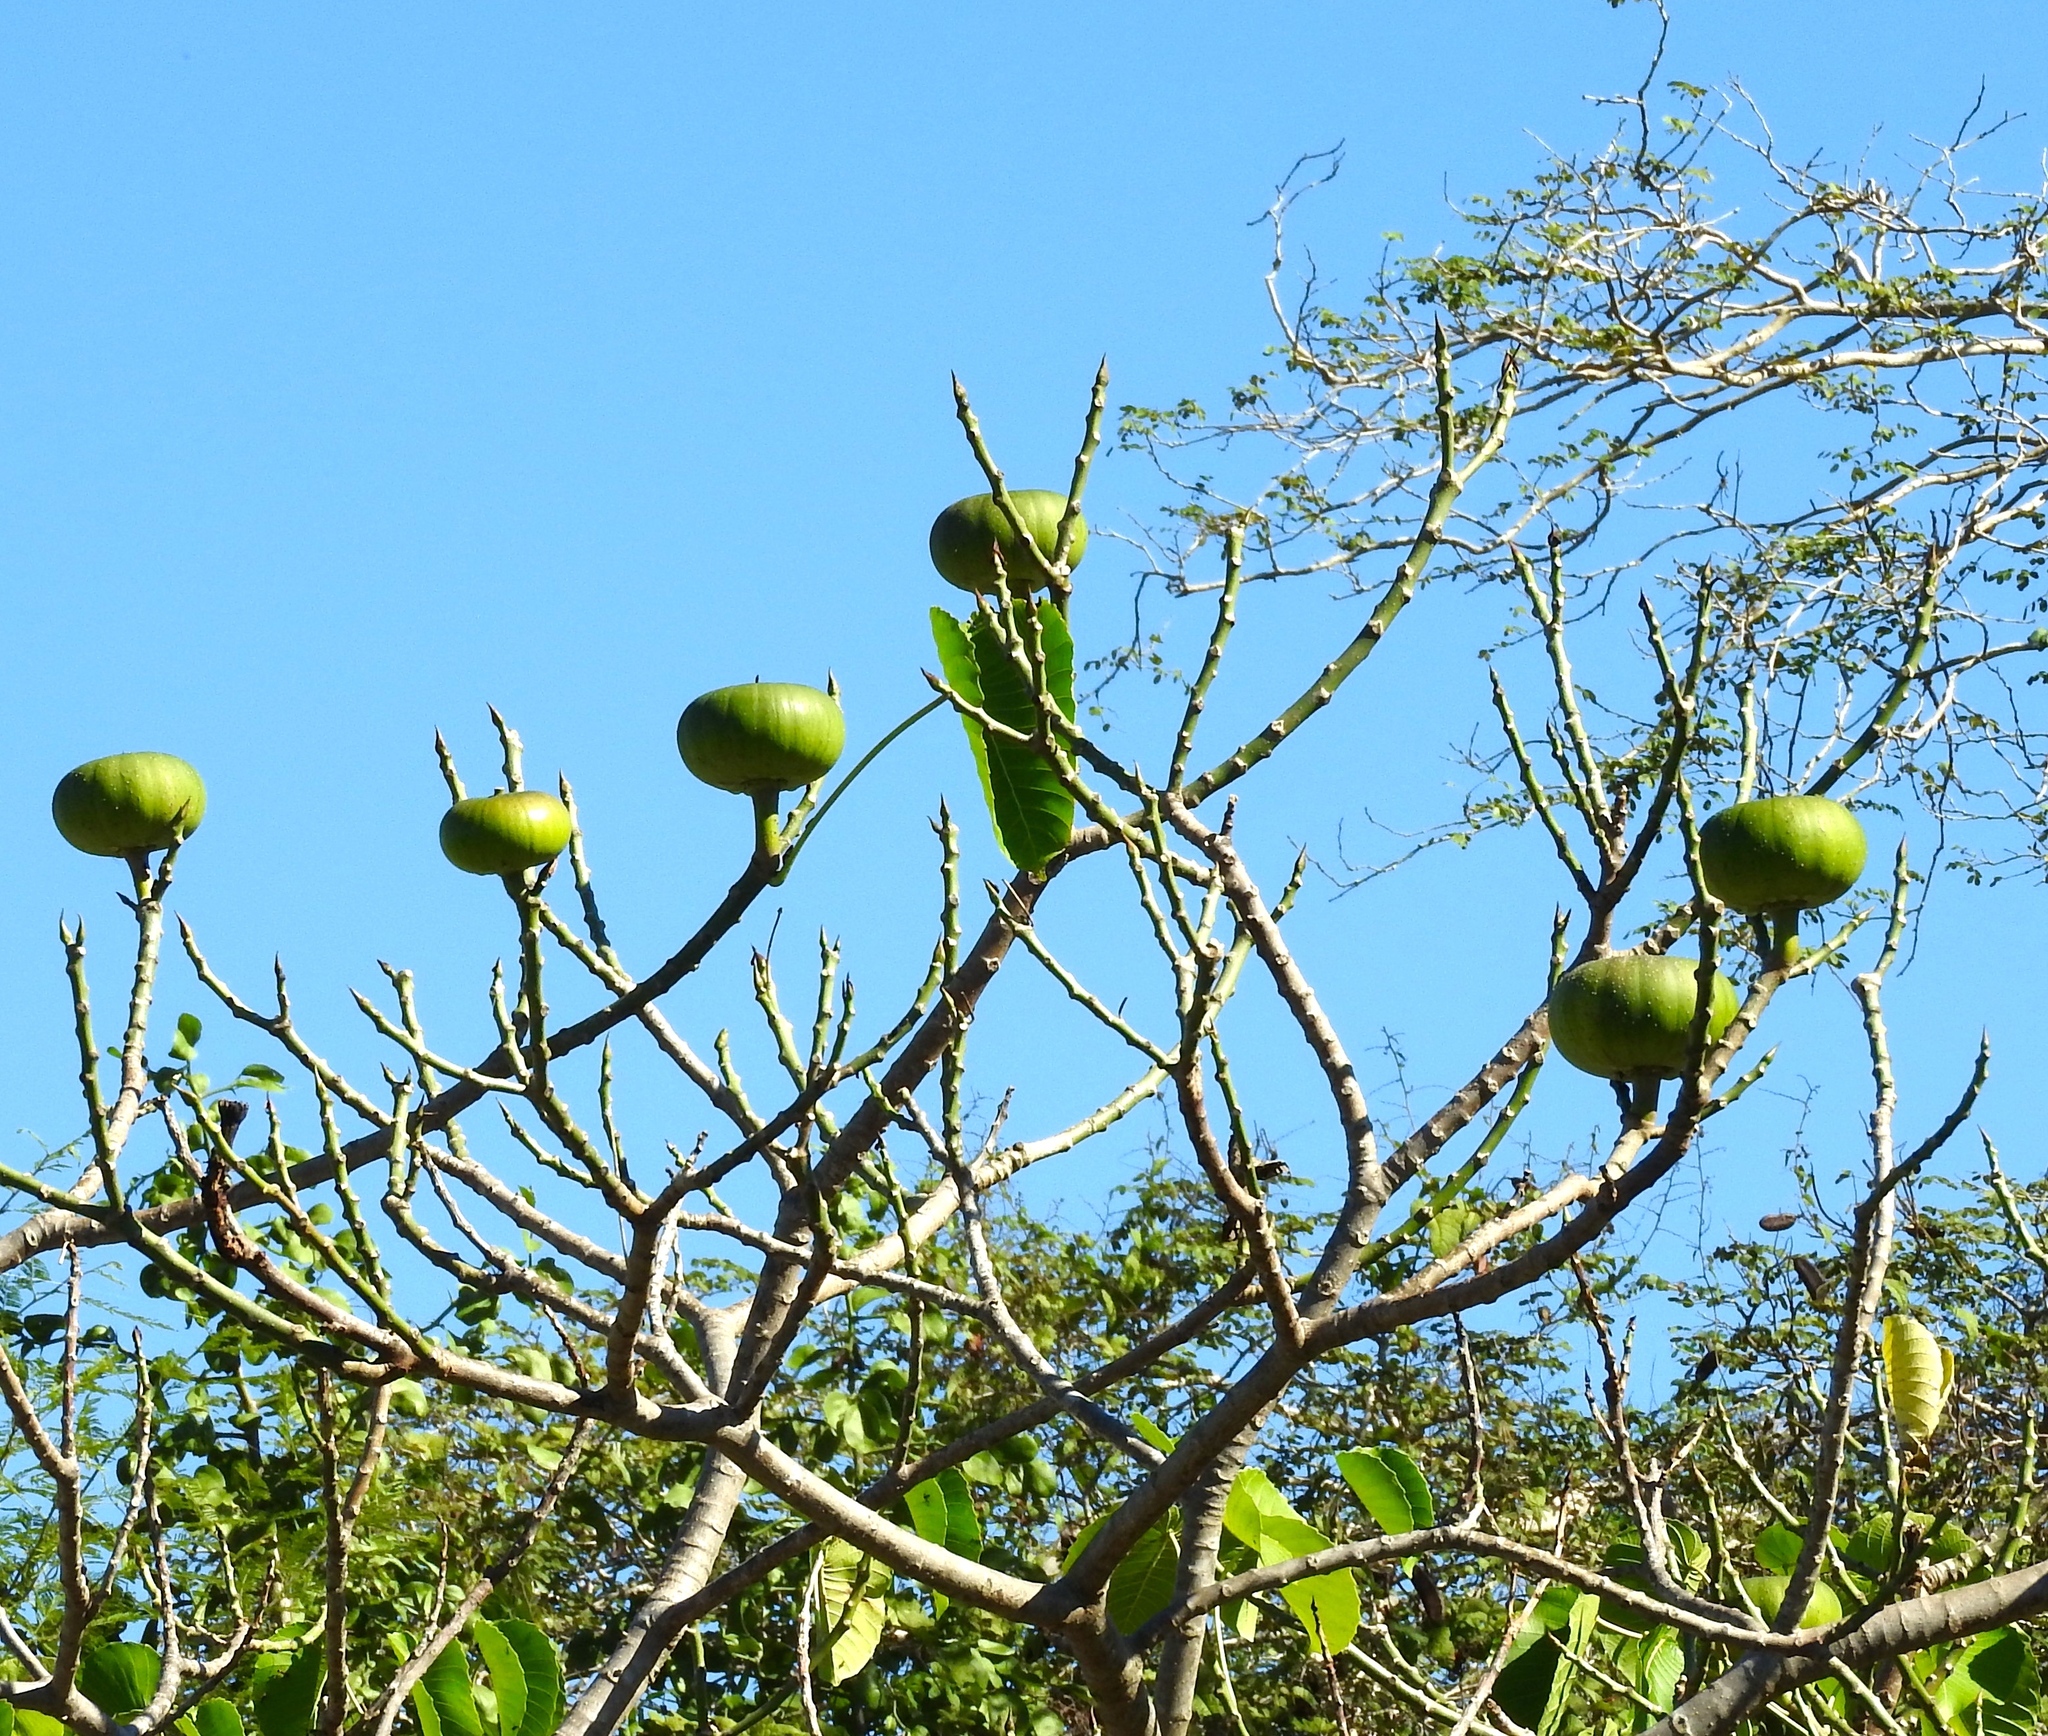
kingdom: Plantae
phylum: Tracheophyta
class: Magnoliopsida
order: Malpighiales
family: Euphorbiaceae
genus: Hura
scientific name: Hura polyandra
